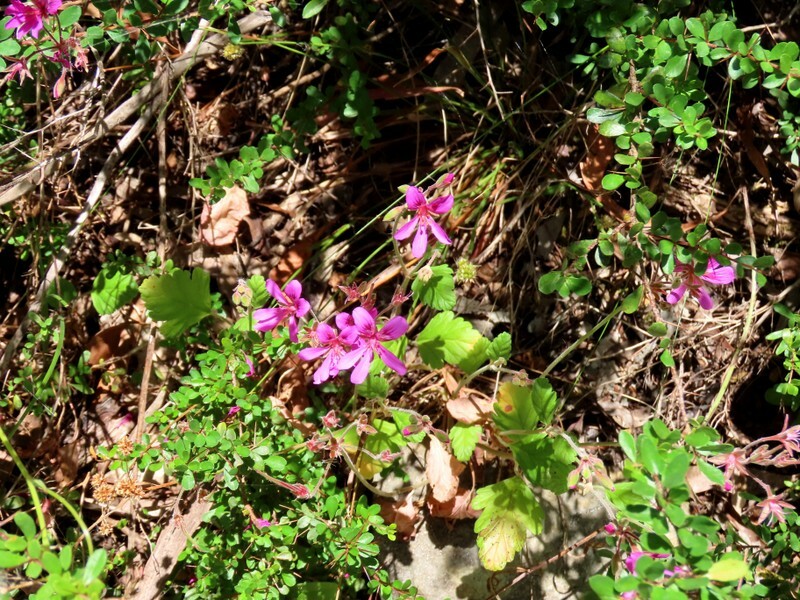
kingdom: Plantae
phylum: Tracheophyta
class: Magnoliopsida
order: Geraniales
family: Geraniaceae
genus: Pelargonium
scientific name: Pelargonium rodneyanum
